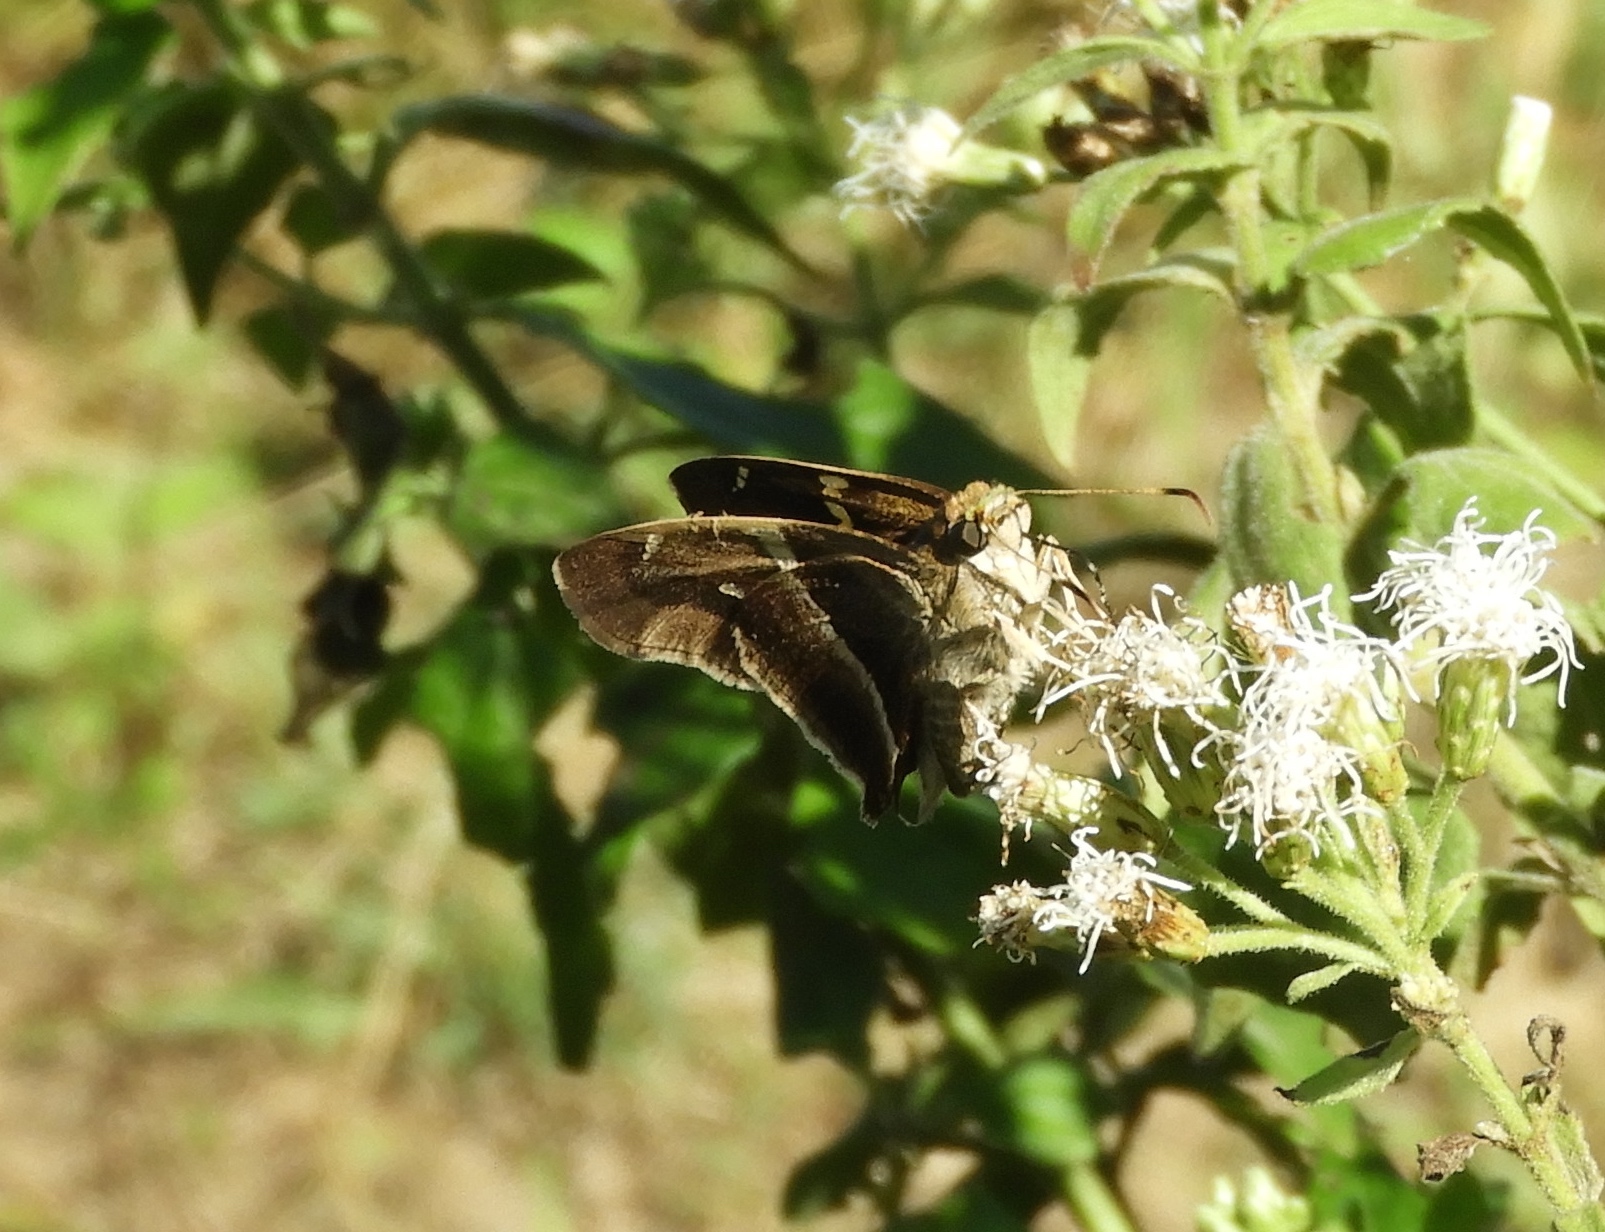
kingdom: Animalia
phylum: Arthropoda
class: Insecta
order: Lepidoptera
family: Hesperiidae
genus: Aguna
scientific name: Aguna metophis
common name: Tailed aguna
